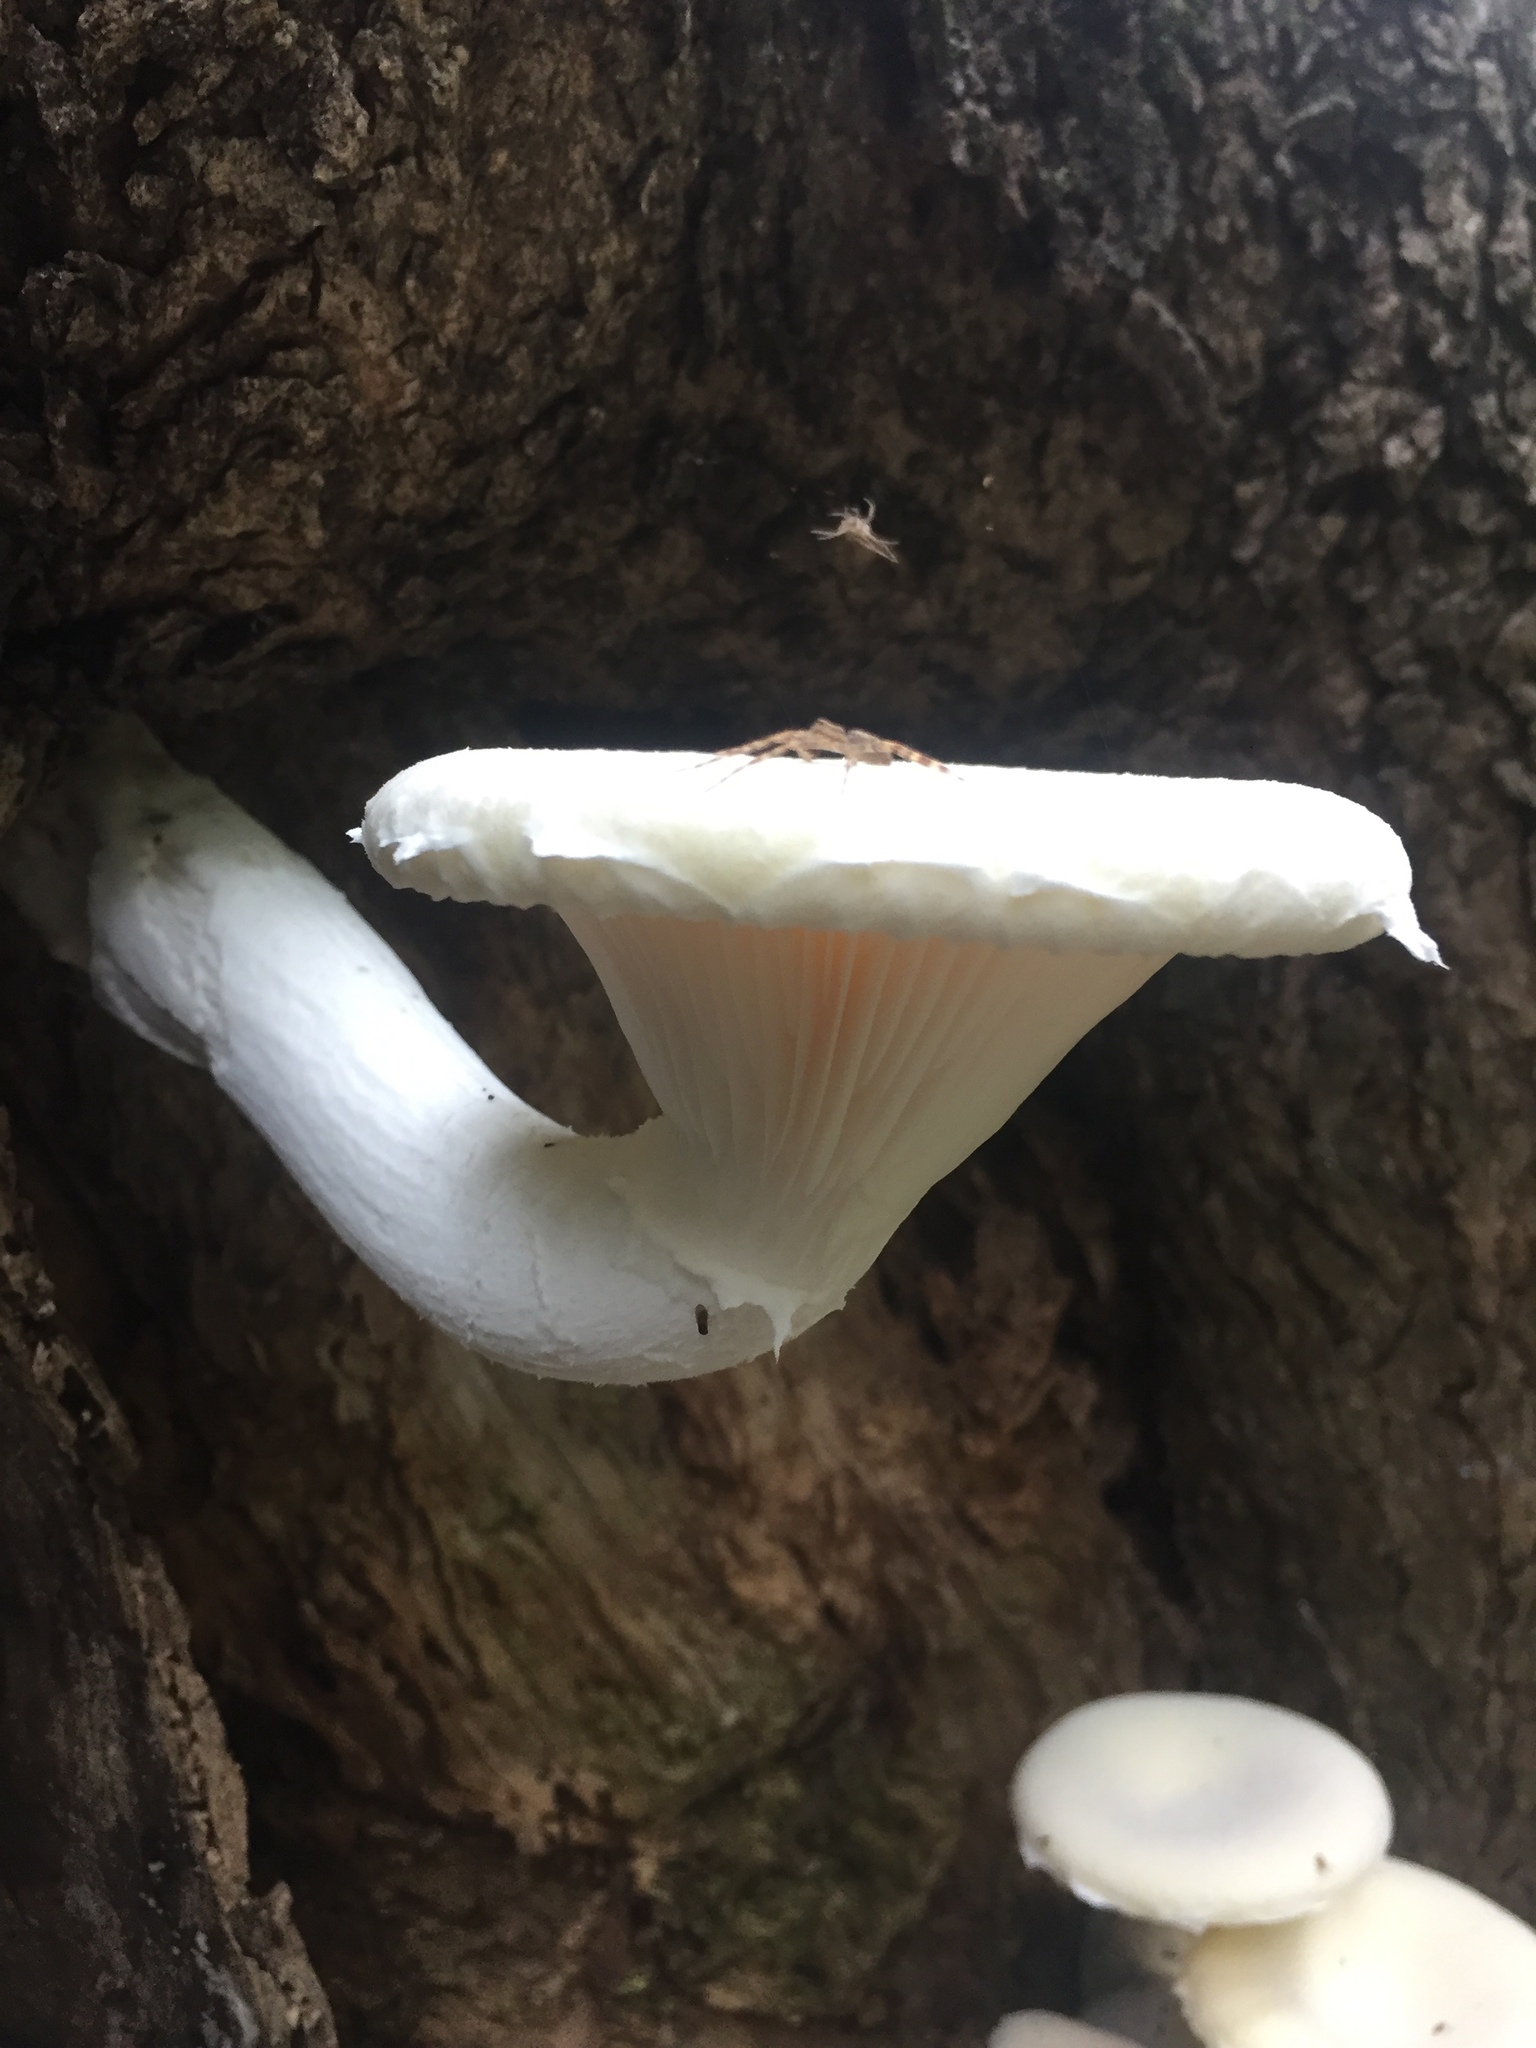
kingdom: Fungi
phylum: Basidiomycota
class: Agaricomycetes
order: Polyporales
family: Polyporaceae
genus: Lentinus
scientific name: Lentinus levis
